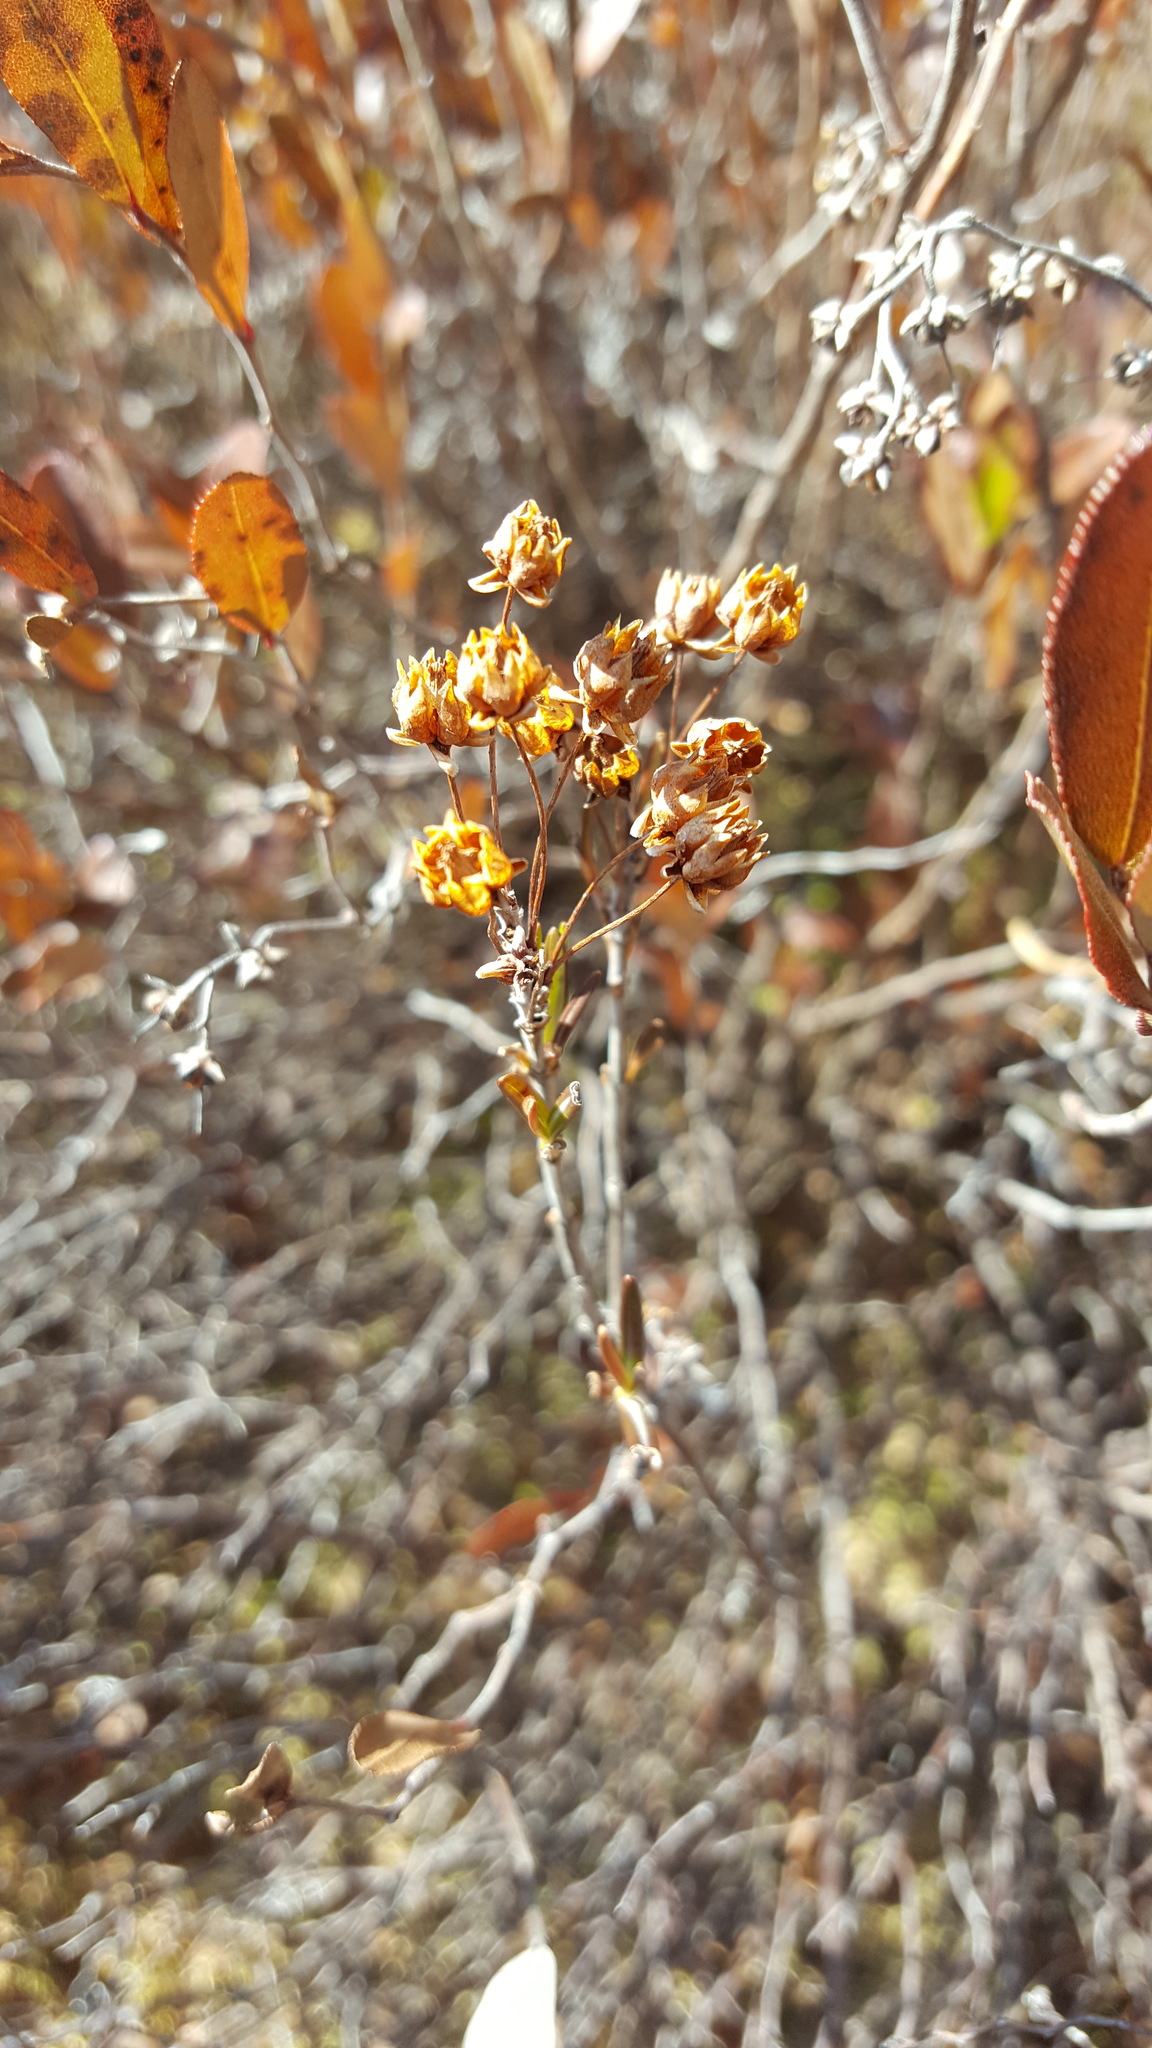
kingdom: Plantae
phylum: Tracheophyta
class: Magnoliopsida
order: Ericales
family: Ericaceae
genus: Kalmia
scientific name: Kalmia polifolia
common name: Bog-laurel
